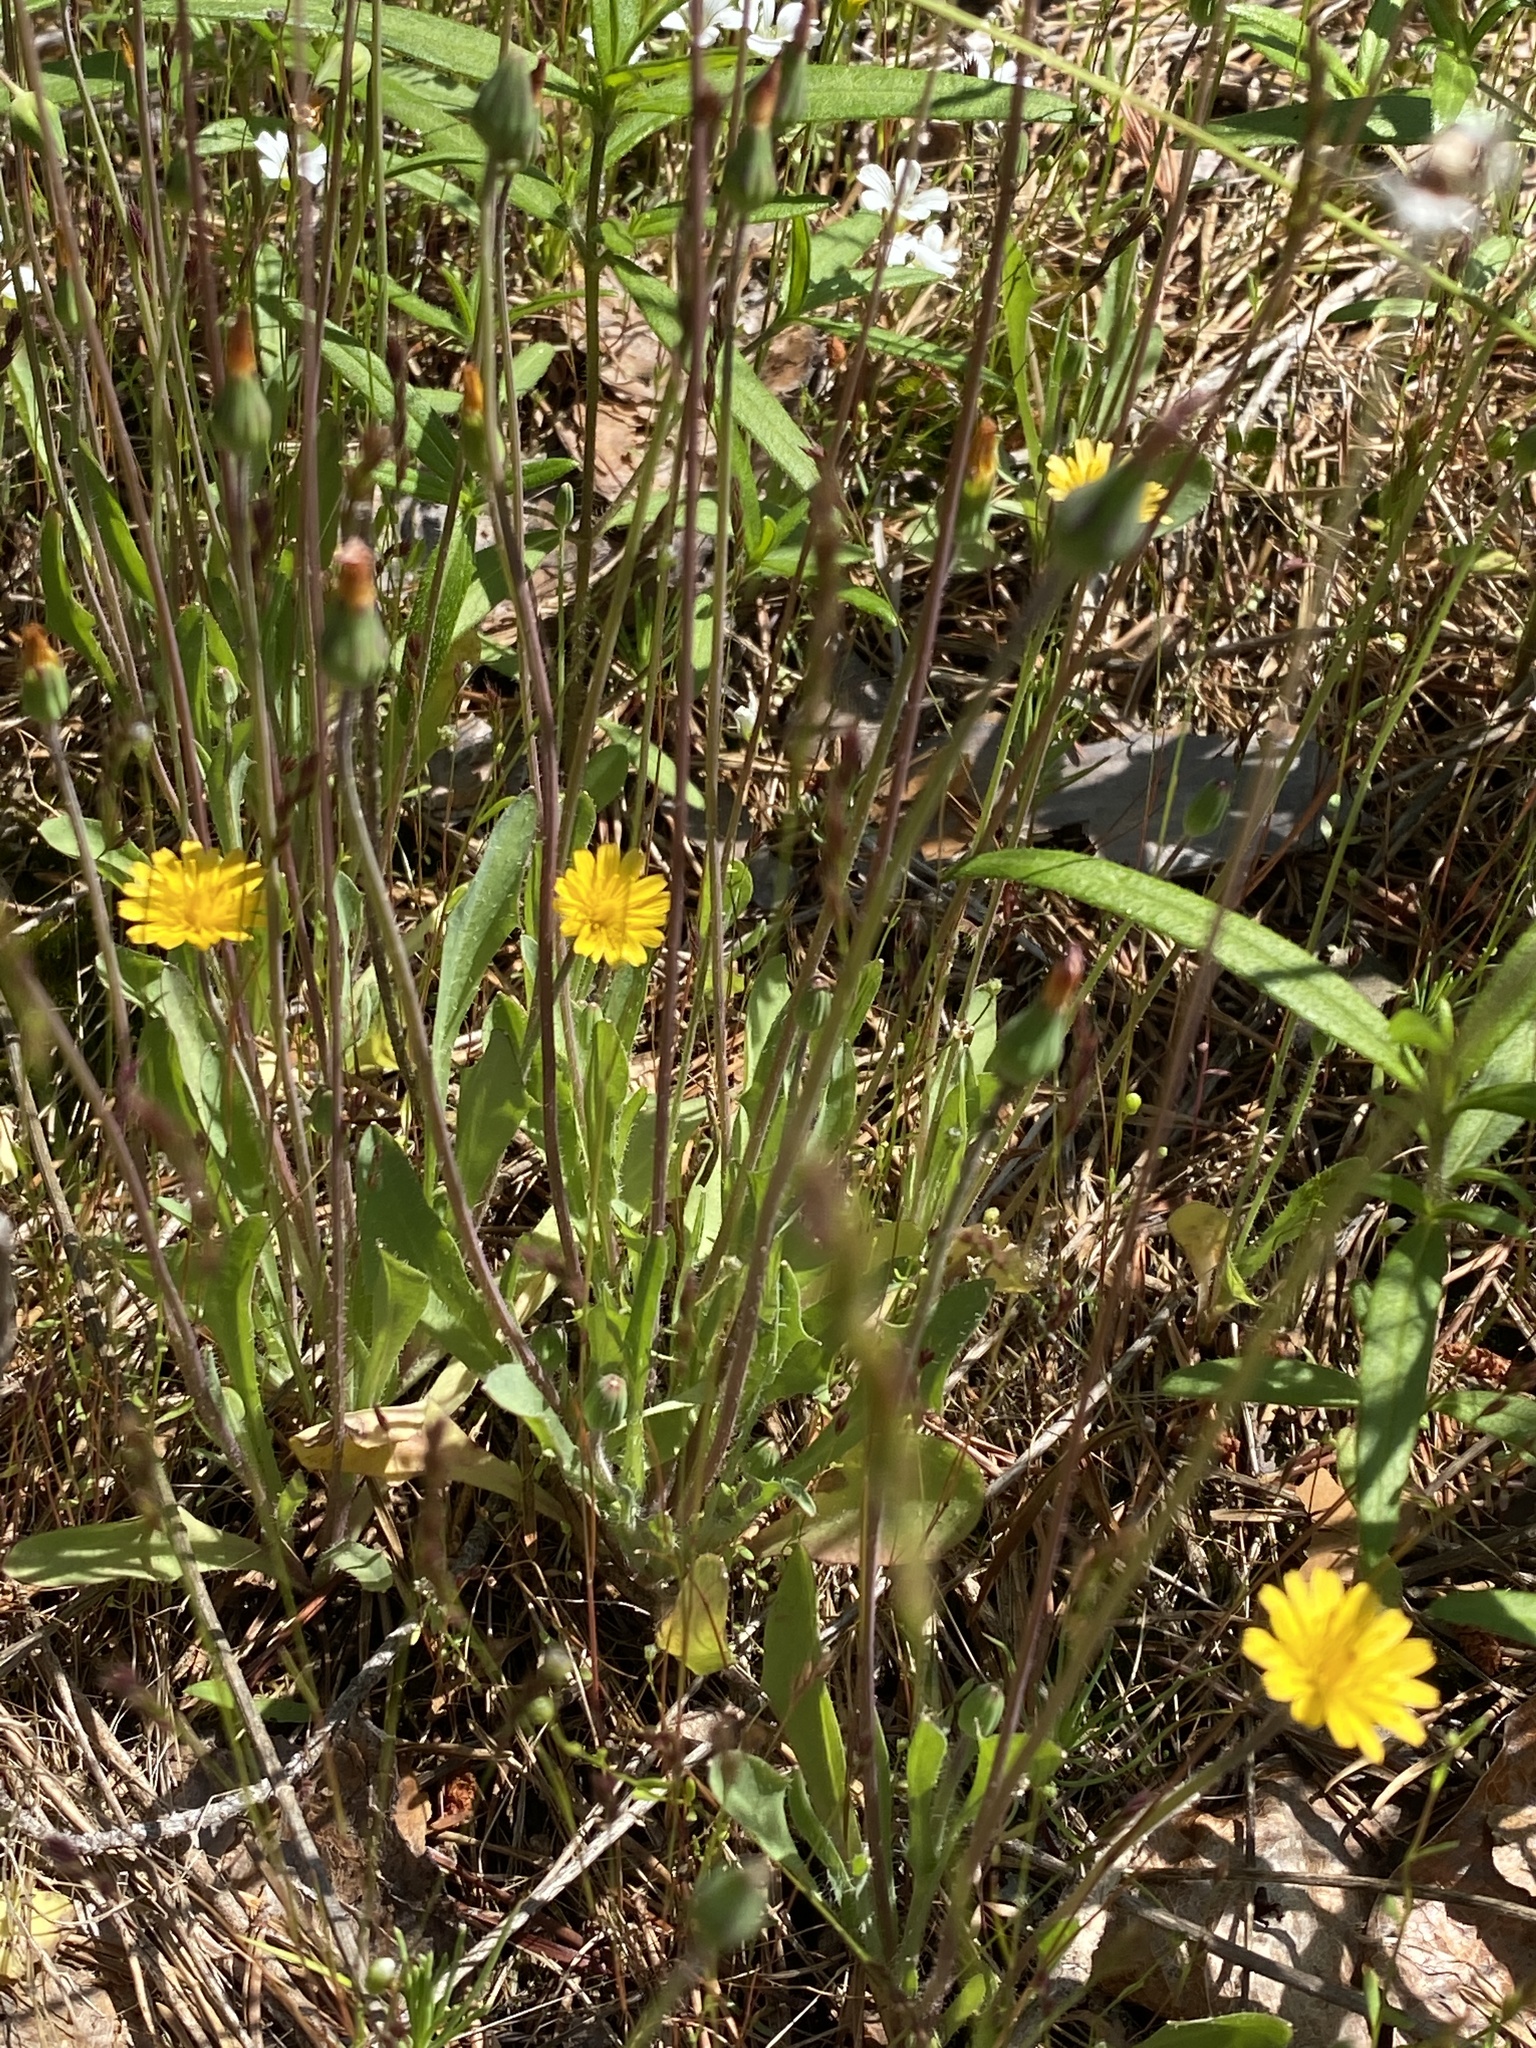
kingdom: Plantae
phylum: Tracheophyta
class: Magnoliopsida
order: Asterales
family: Asteraceae
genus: Krigia
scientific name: Krigia virginica
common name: Virginia dwarf-dandelion
